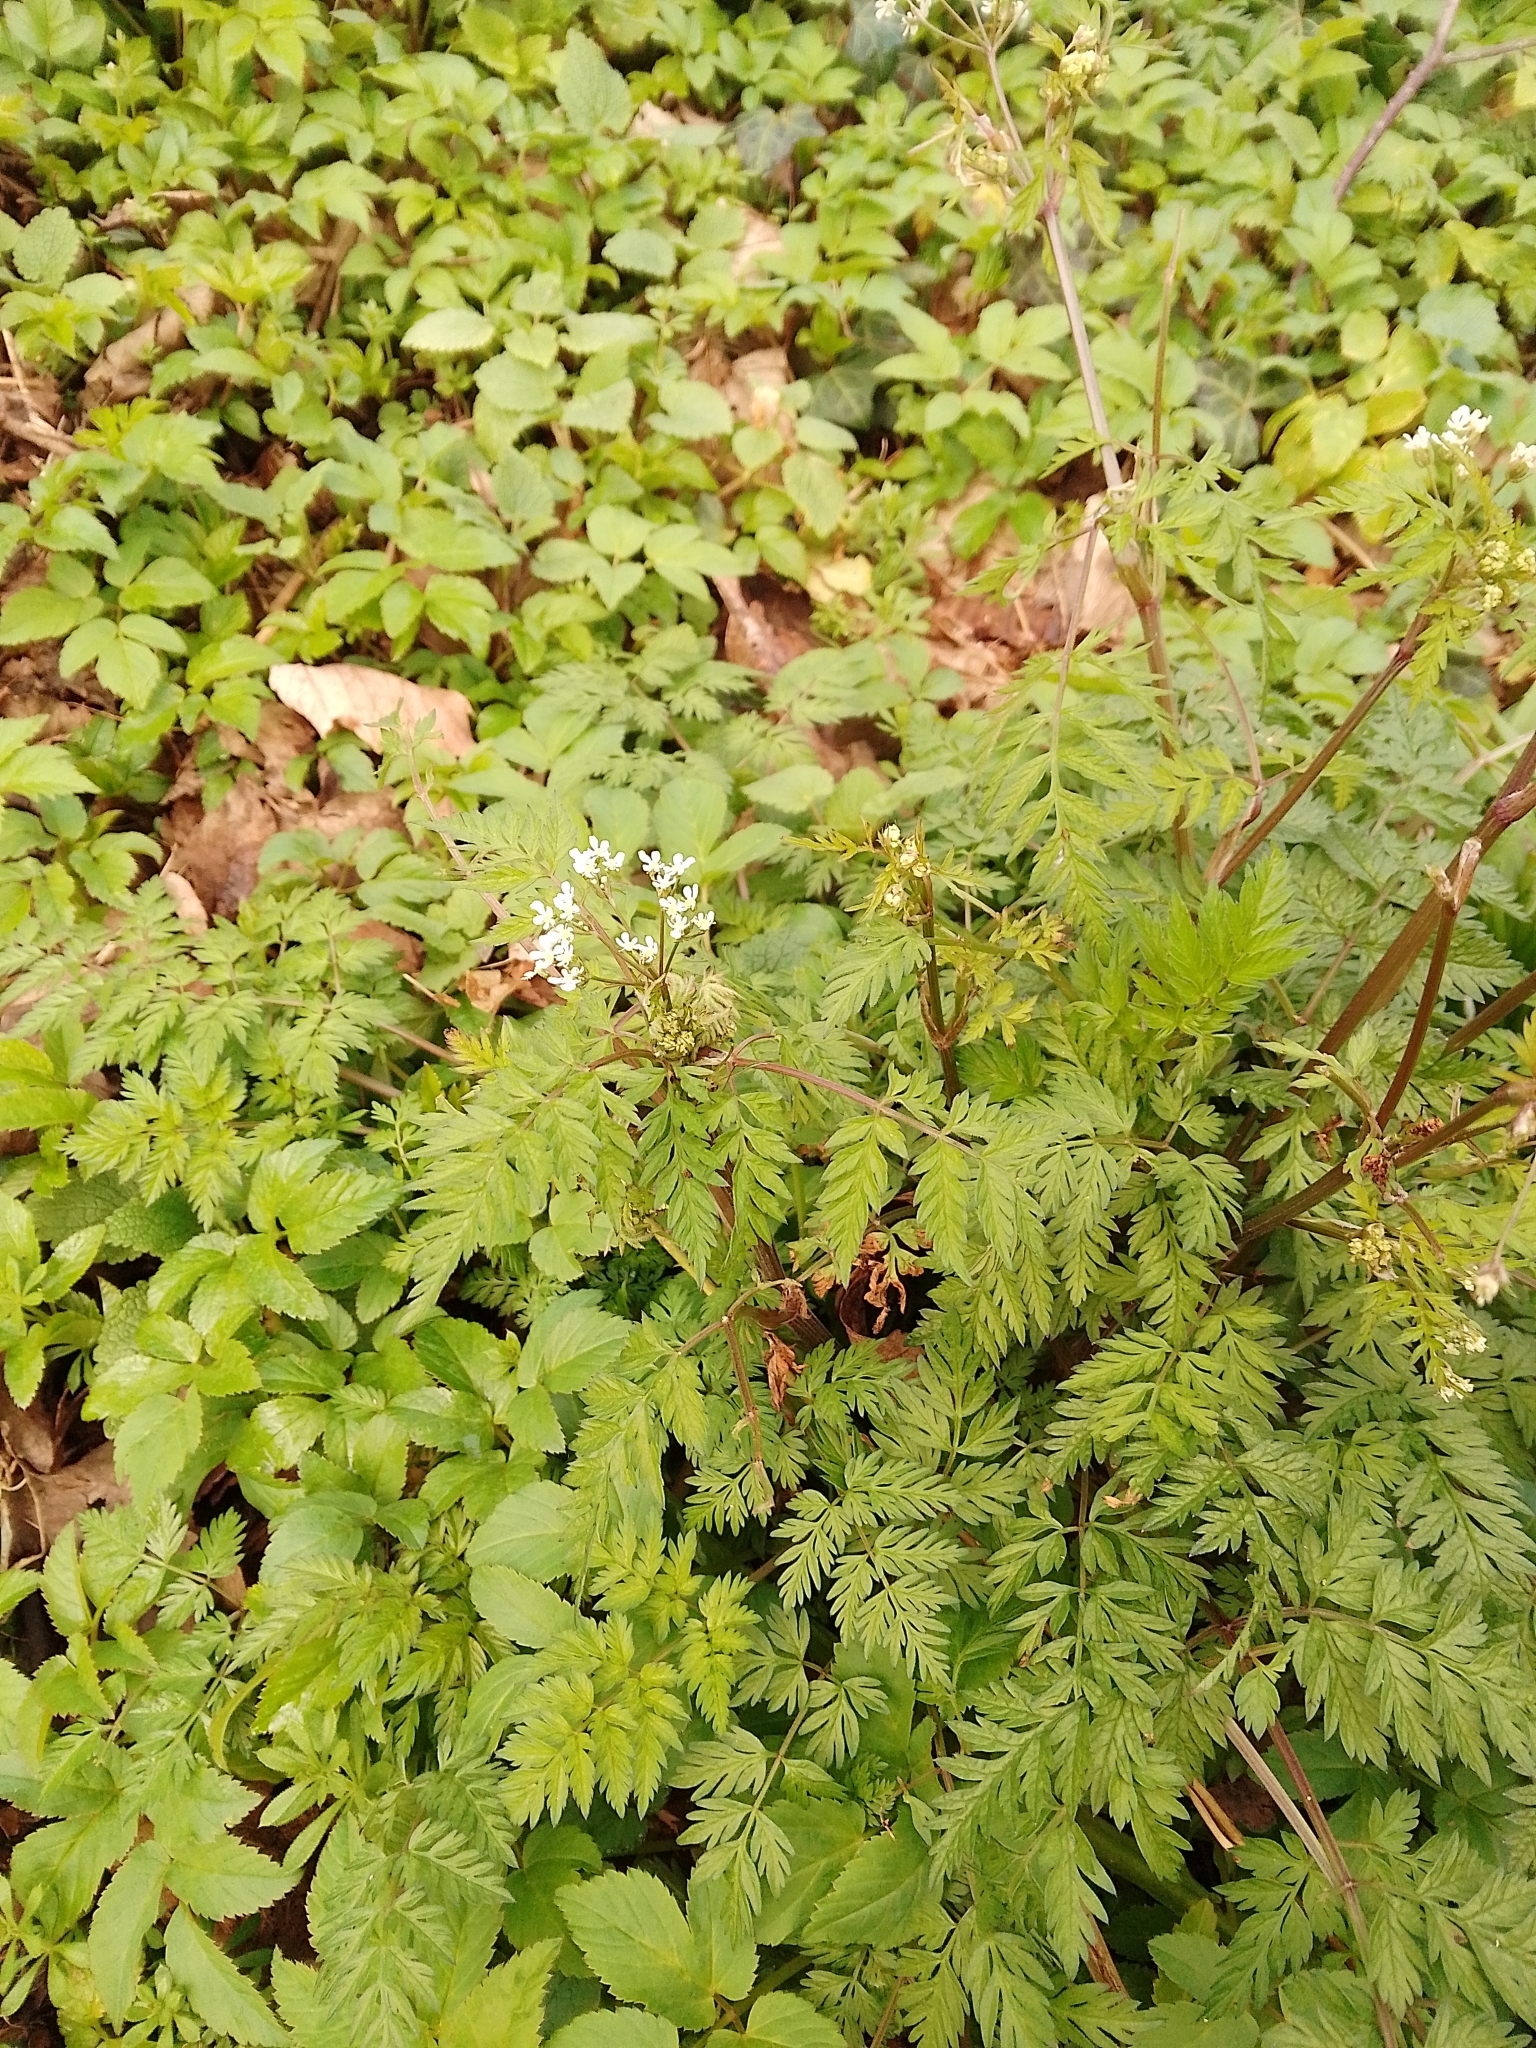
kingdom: Plantae
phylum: Tracheophyta
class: Magnoliopsida
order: Apiales
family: Apiaceae
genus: Anthriscus
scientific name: Anthriscus sylvestris
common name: Cow parsley
